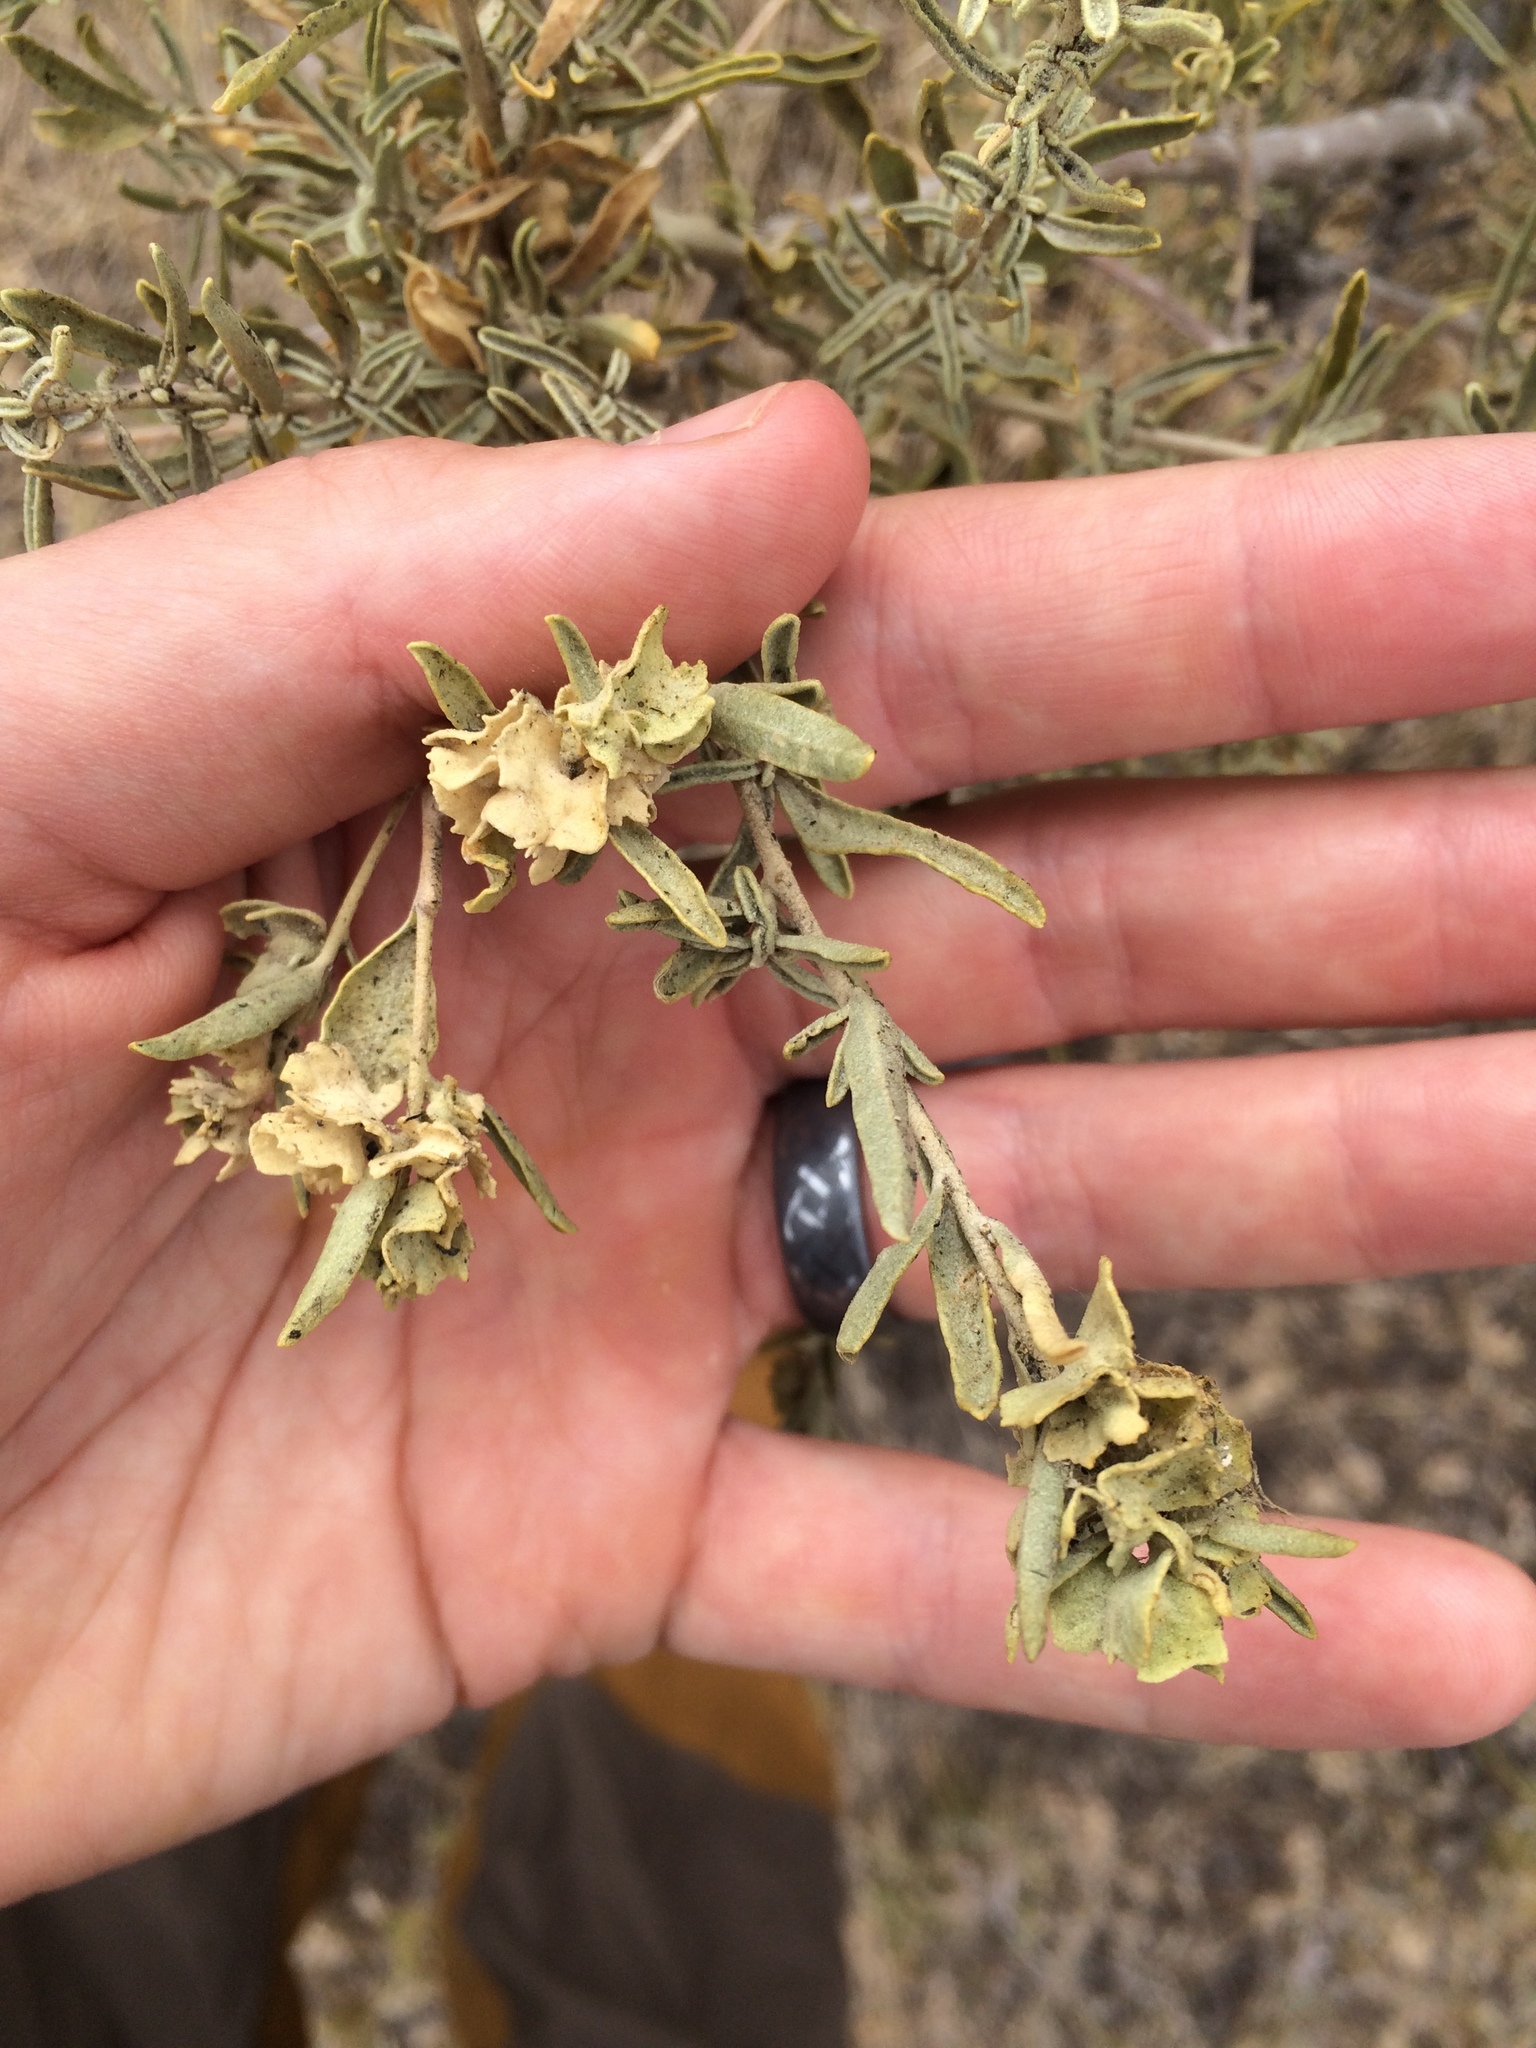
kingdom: Plantae
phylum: Tracheophyta
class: Magnoliopsida
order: Caryophyllales
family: Amaranthaceae
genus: Atriplex
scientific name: Atriplex canescens
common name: Four-wing saltbush
